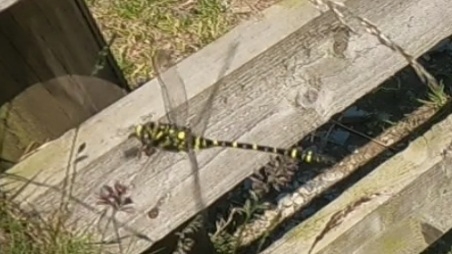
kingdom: Animalia
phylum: Arthropoda
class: Insecta
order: Odonata
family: Cordulegastridae
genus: Cordulegaster
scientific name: Cordulegaster boltonii
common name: Golden-ringed dragonfly
